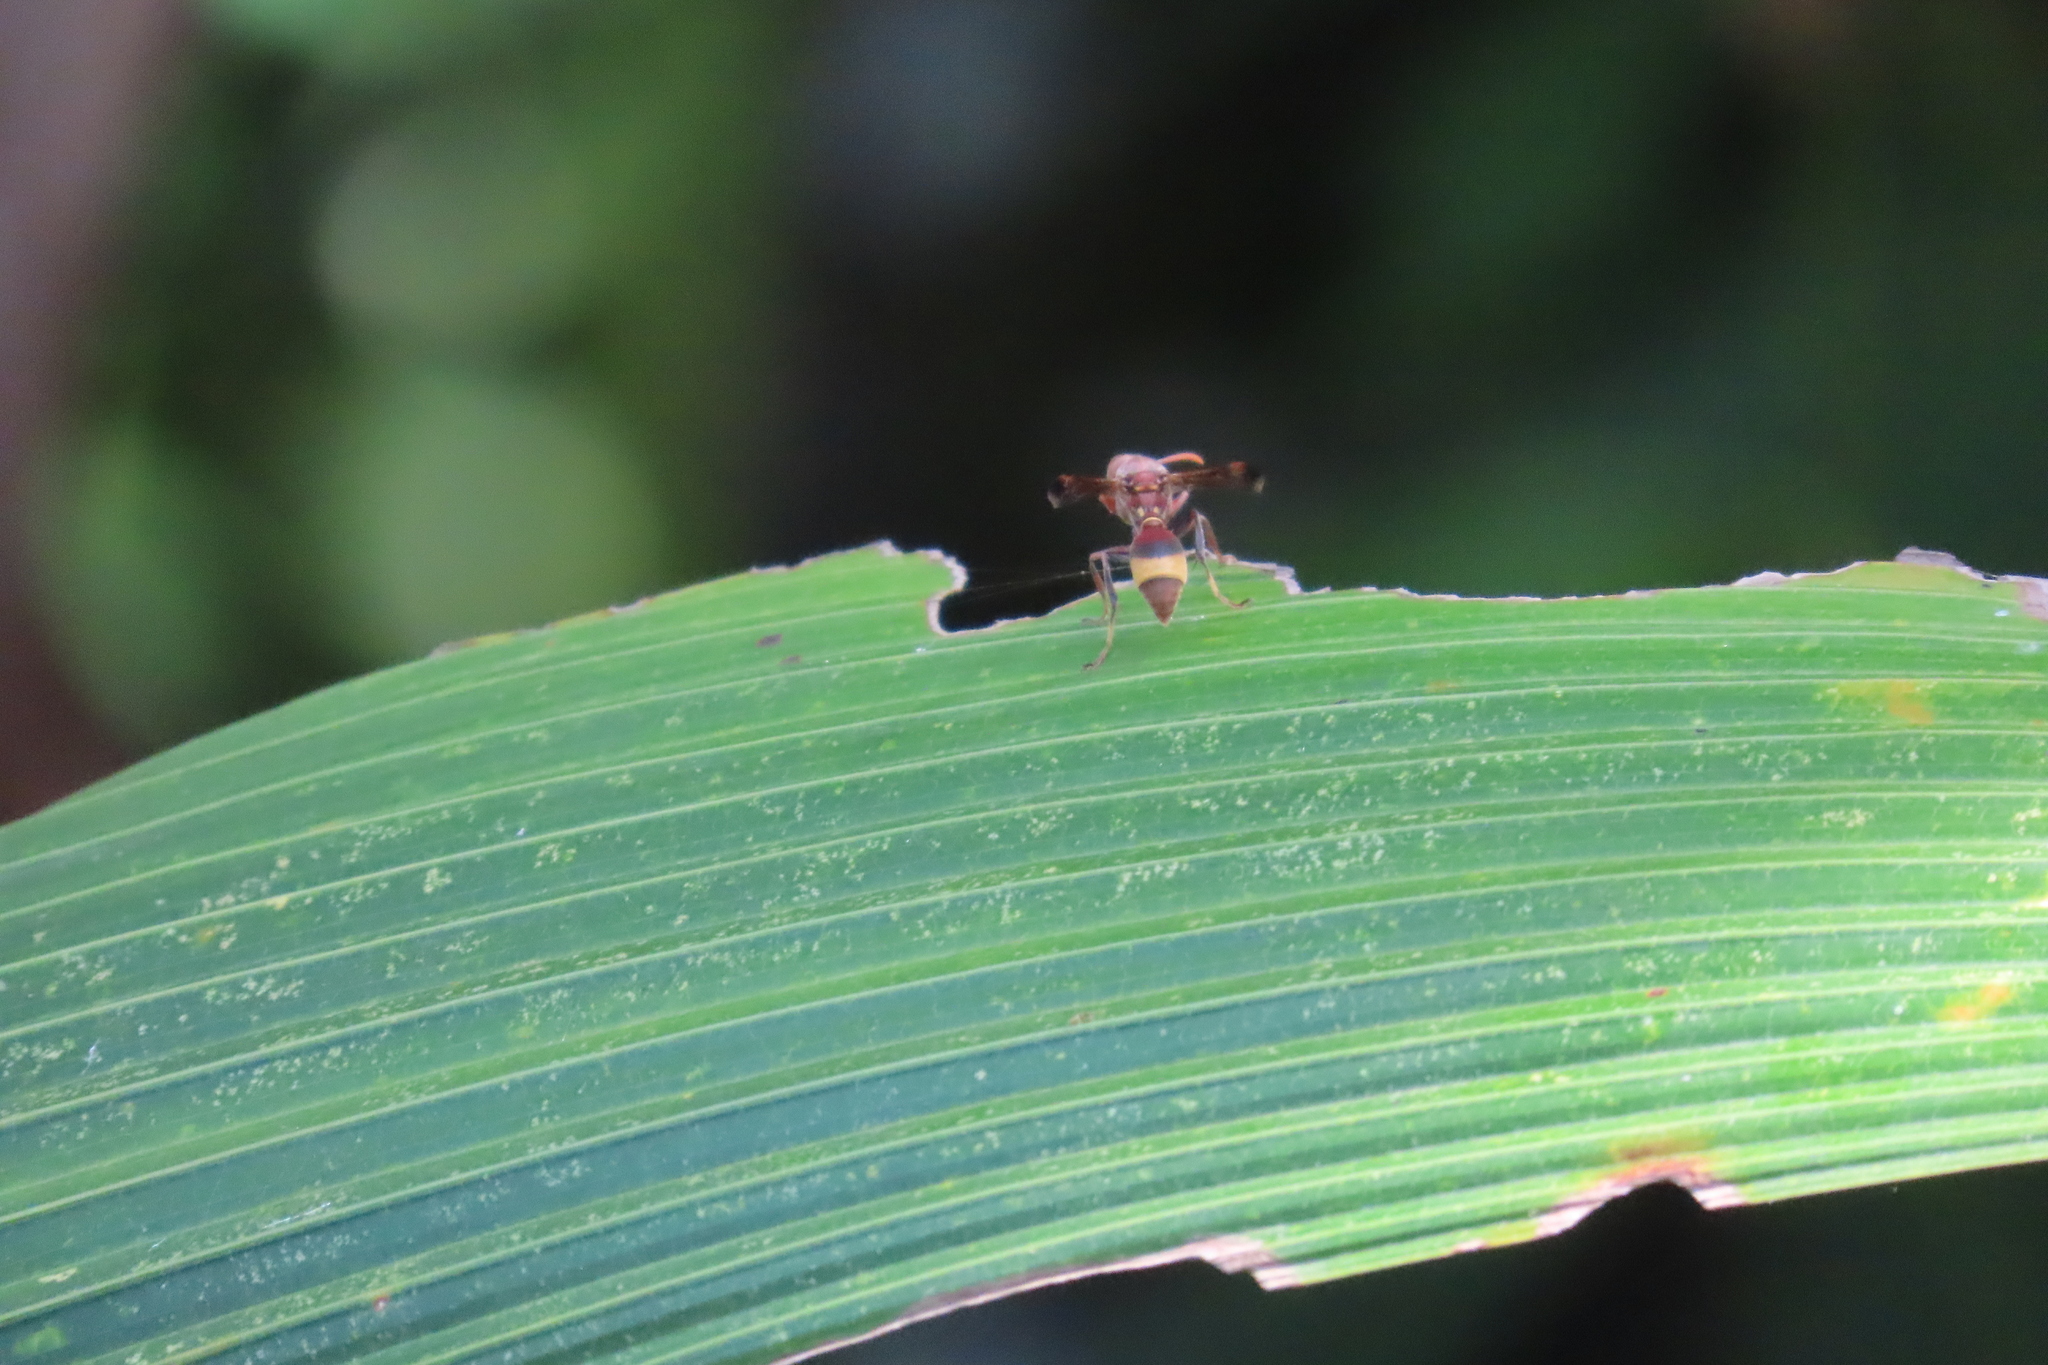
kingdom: Animalia
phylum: Arthropoda
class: Insecta
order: Hymenoptera
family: Vespidae
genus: Ropalidia
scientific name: Ropalidia
